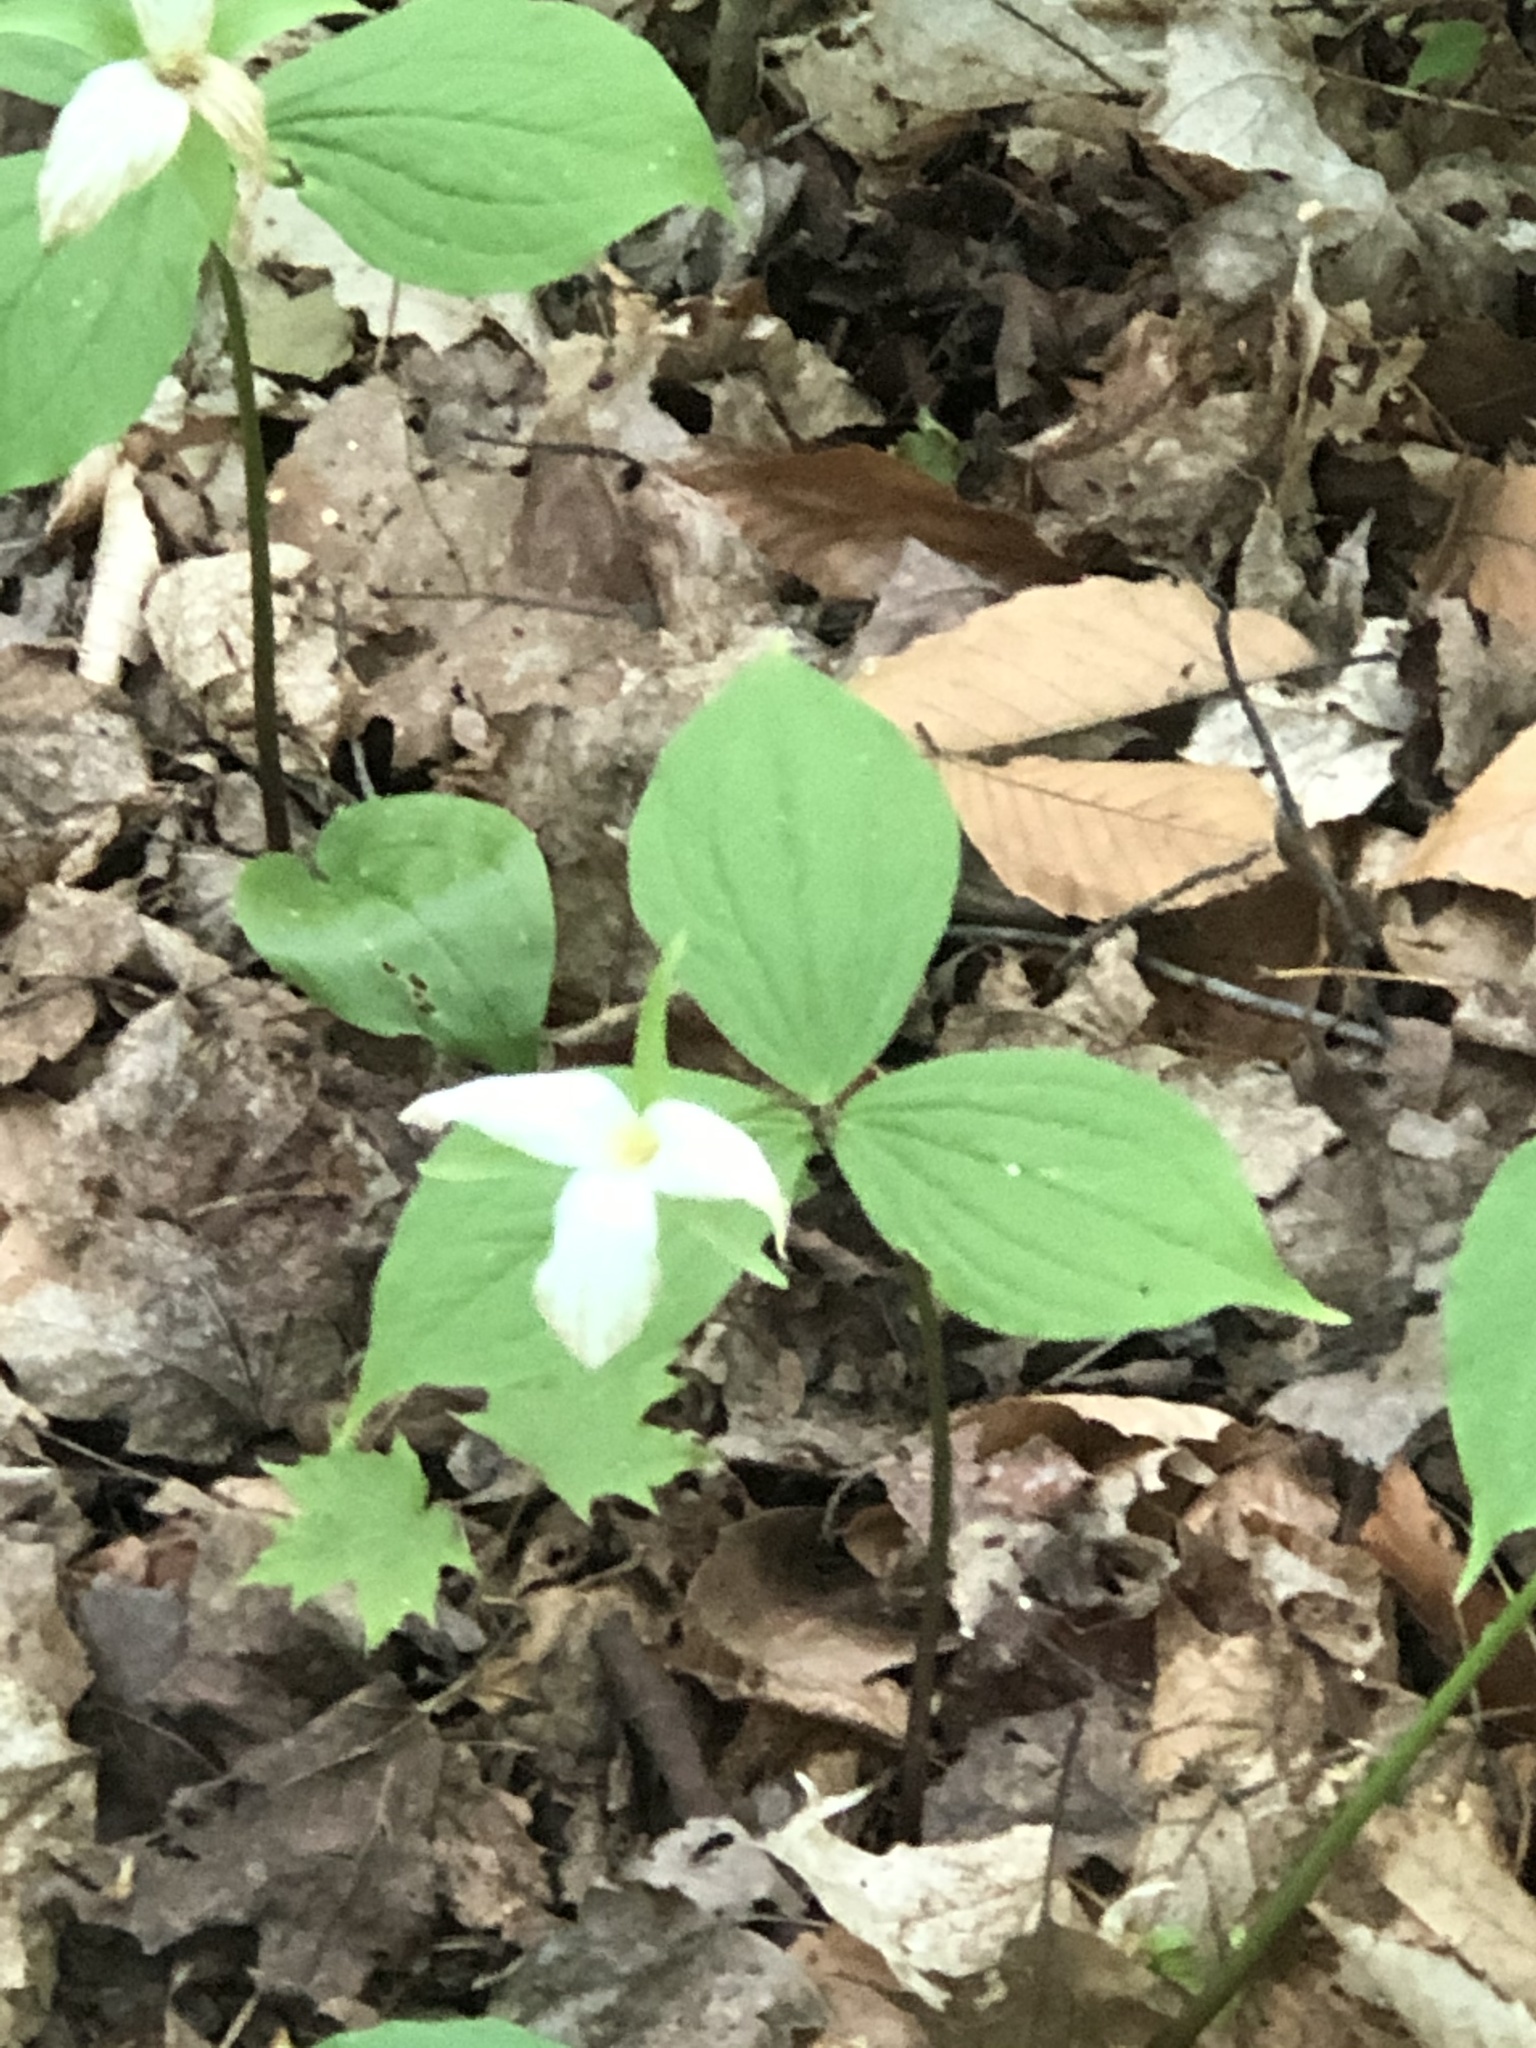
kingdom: Plantae
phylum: Tracheophyta
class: Liliopsida
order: Liliales
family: Melanthiaceae
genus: Trillium
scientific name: Trillium grandiflorum
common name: Great white trillium
